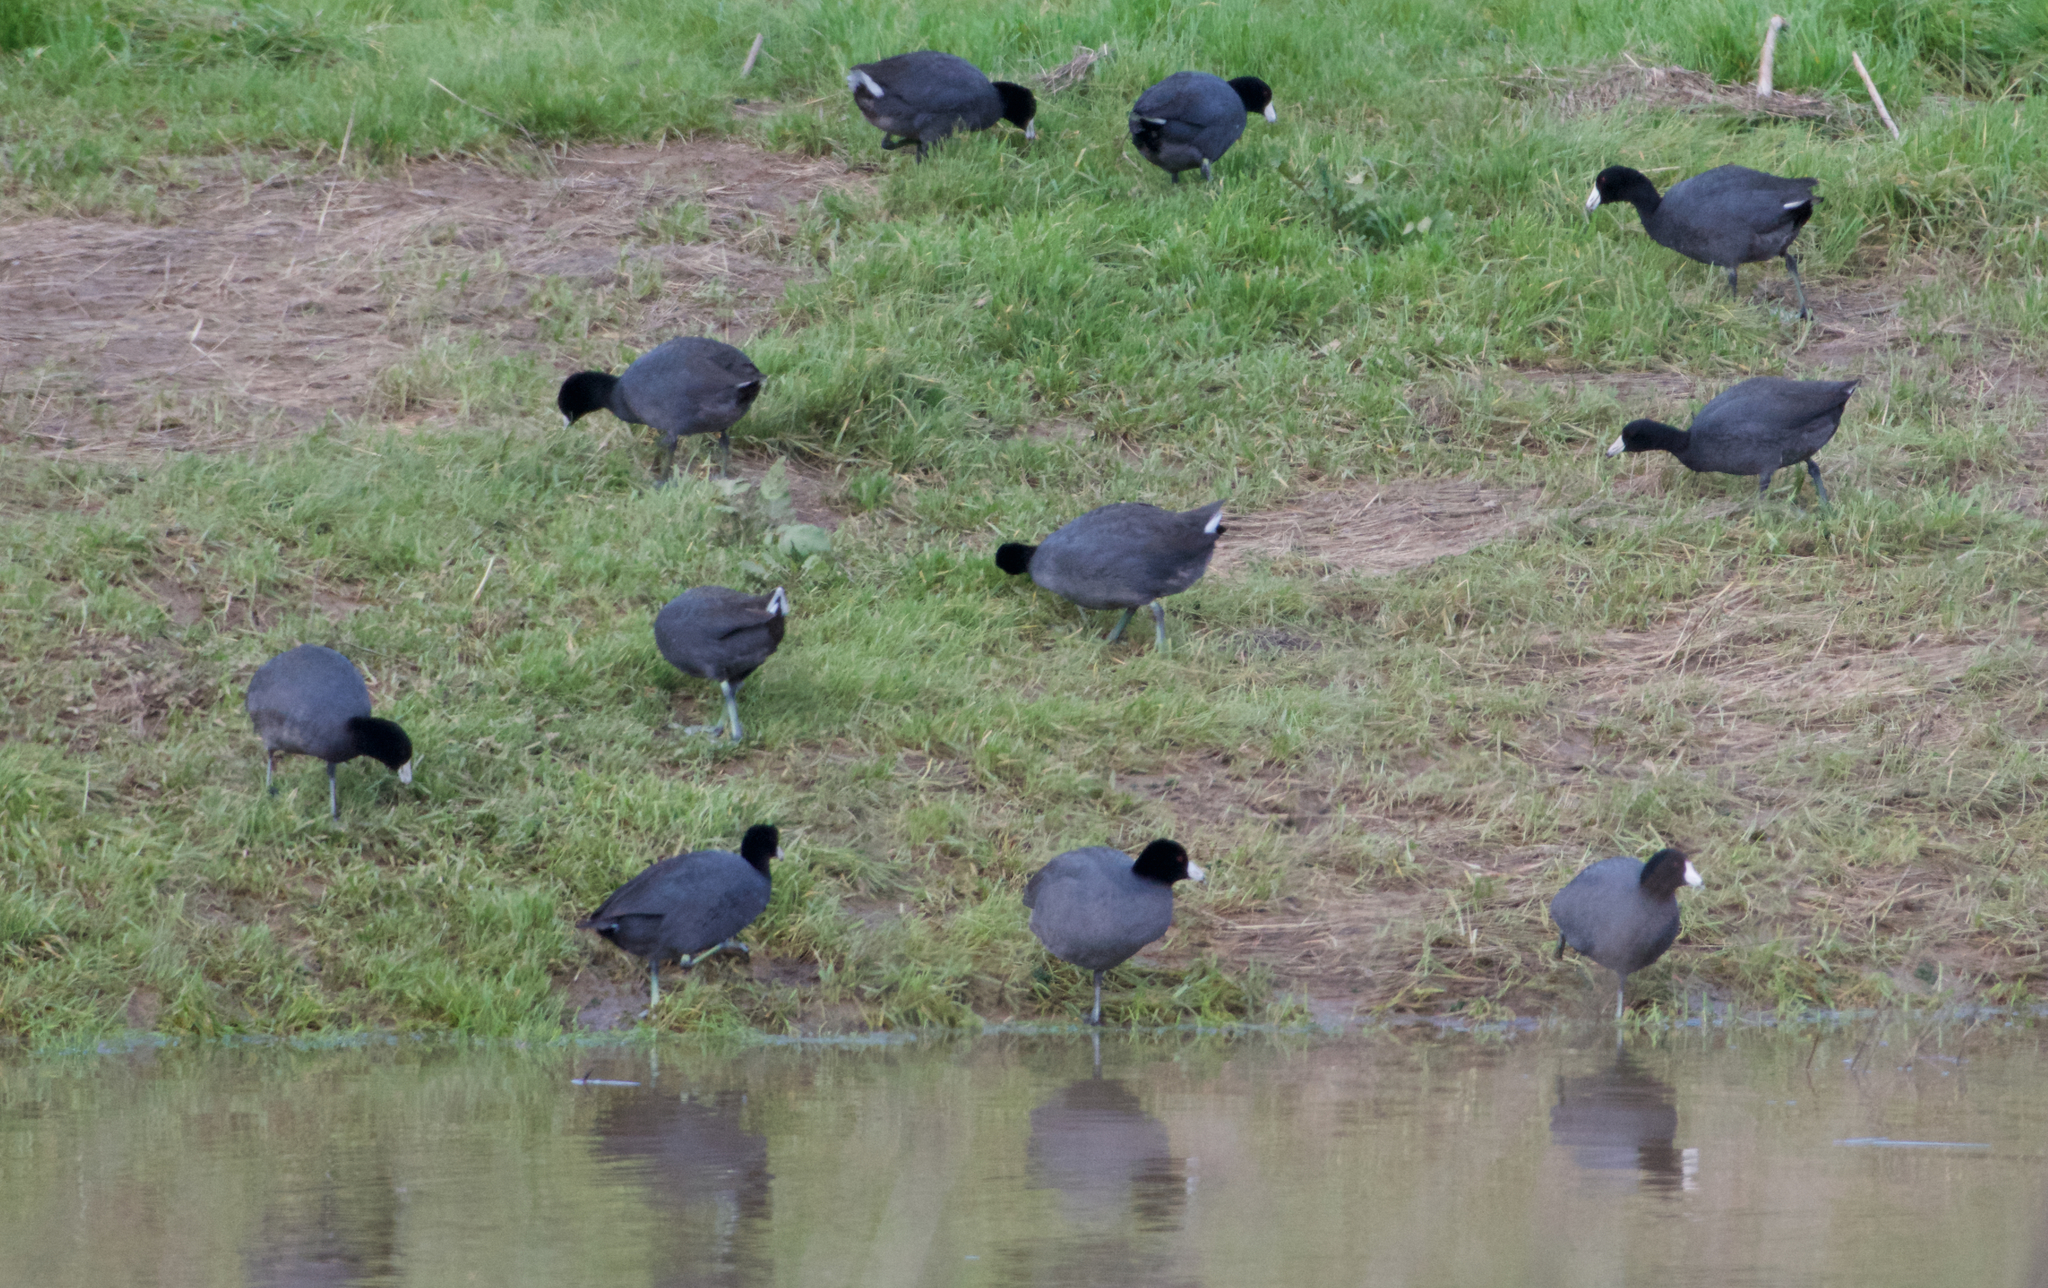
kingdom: Animalia
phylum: Chordata
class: Aves
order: Gruiformes
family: Rallidae
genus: Fulica
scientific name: Fulica americana
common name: American coot
